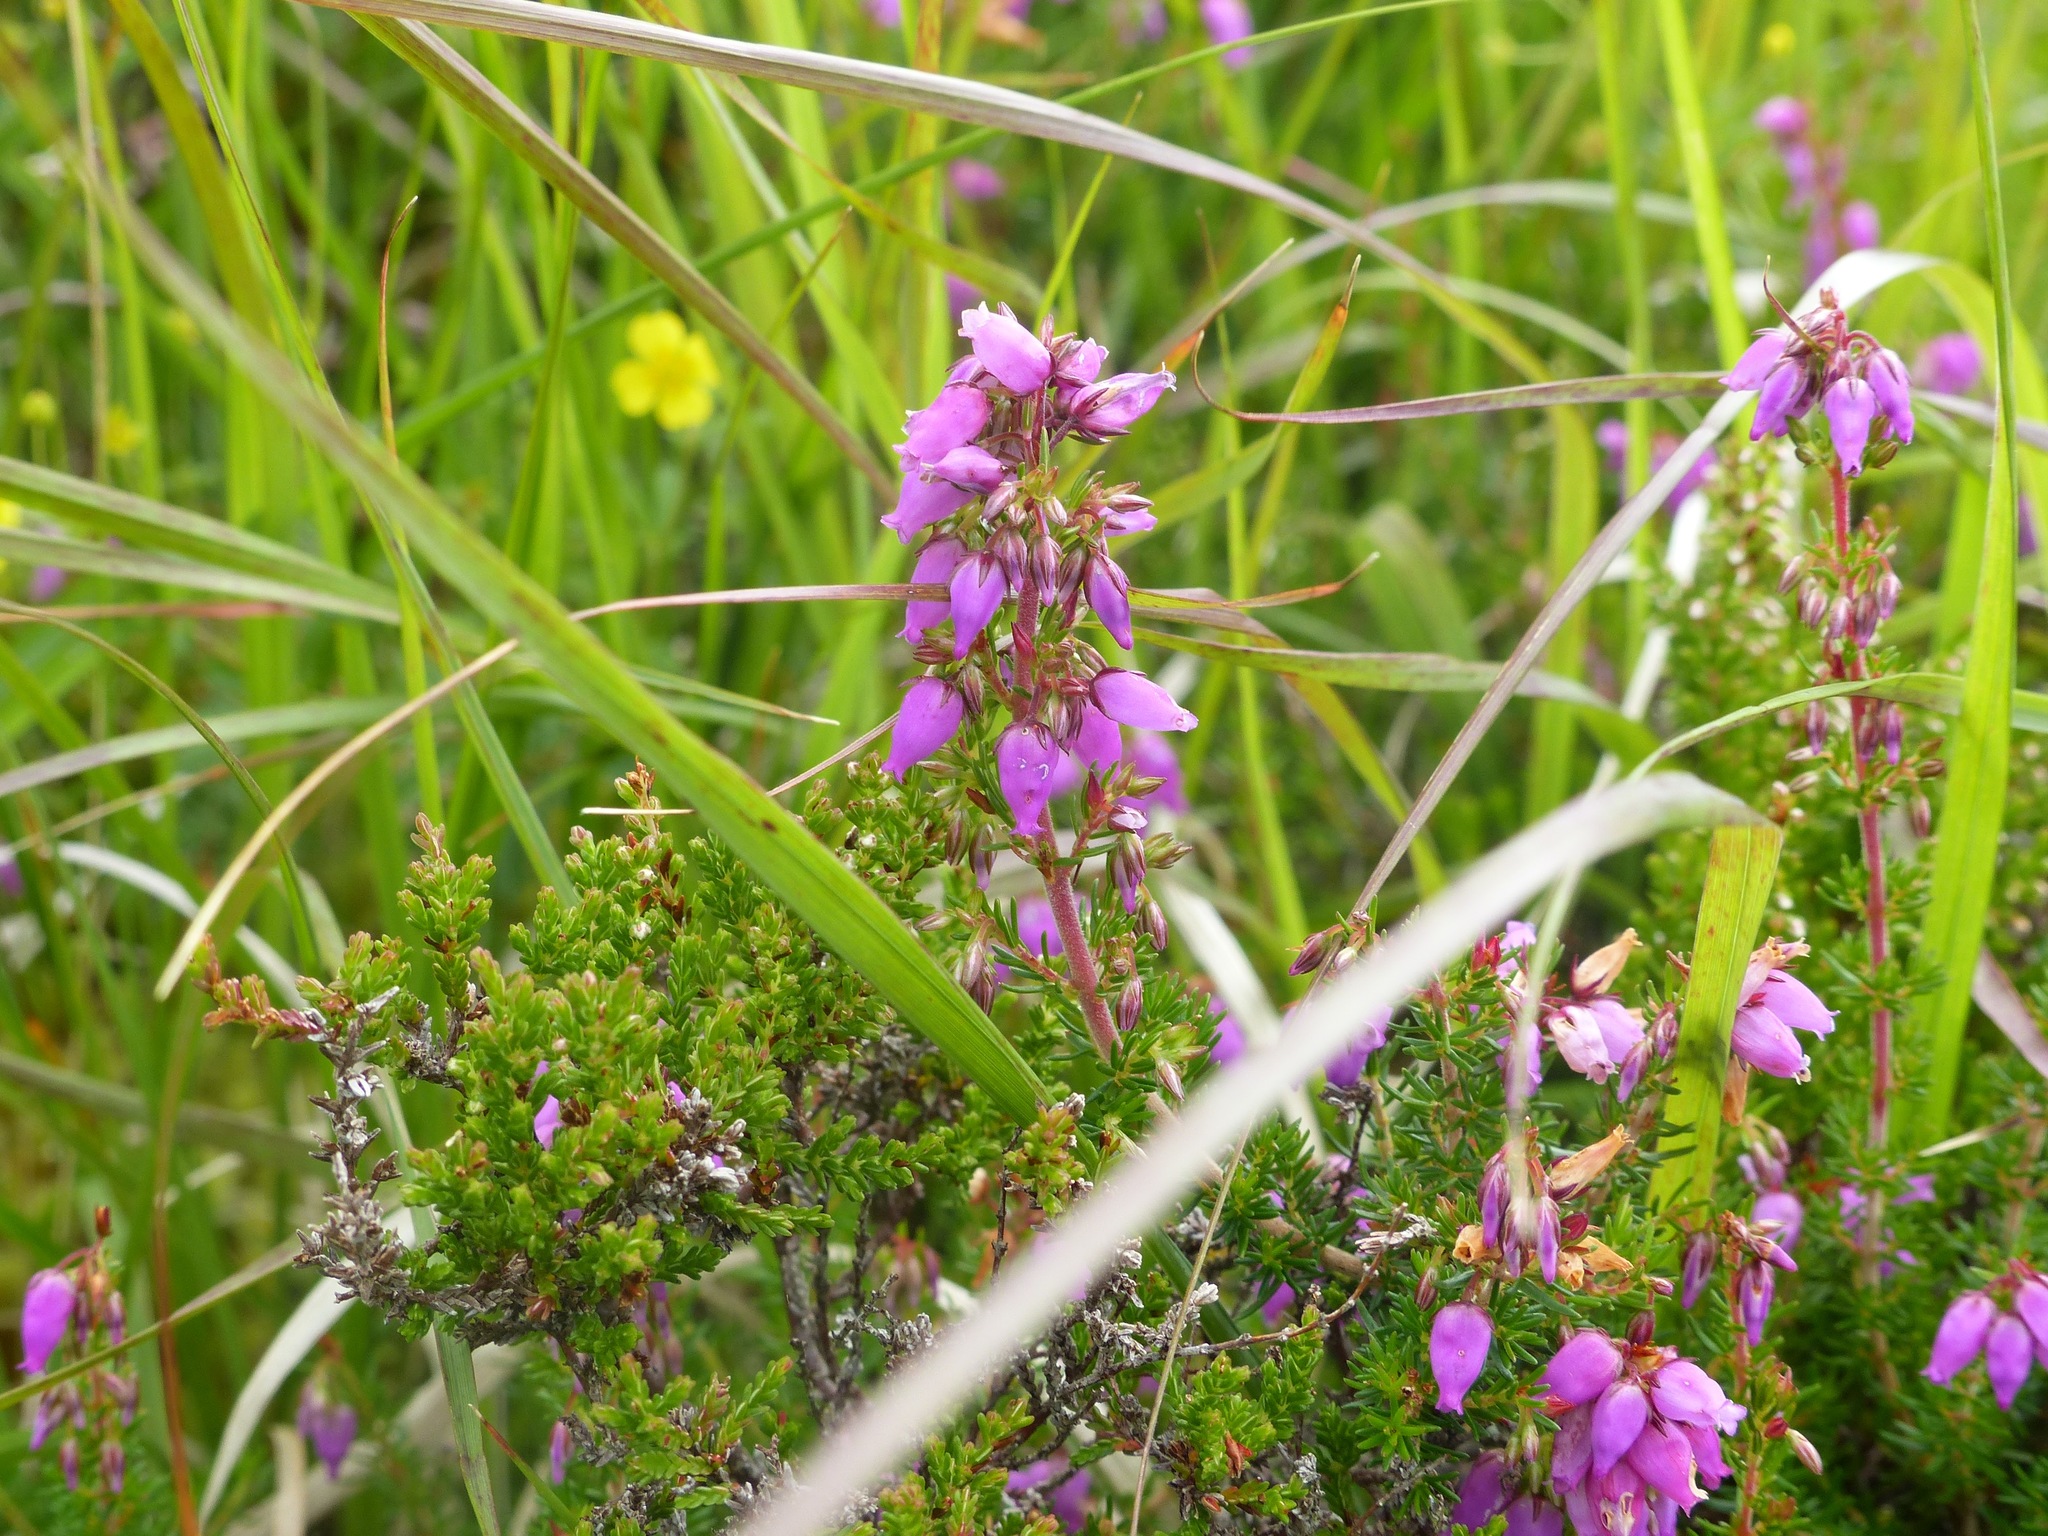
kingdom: Plantae
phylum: Tracheophyta
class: Magnoliopsida
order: Ericales
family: Ericaceae
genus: Erica
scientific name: Erica cinerea
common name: Bell heather
